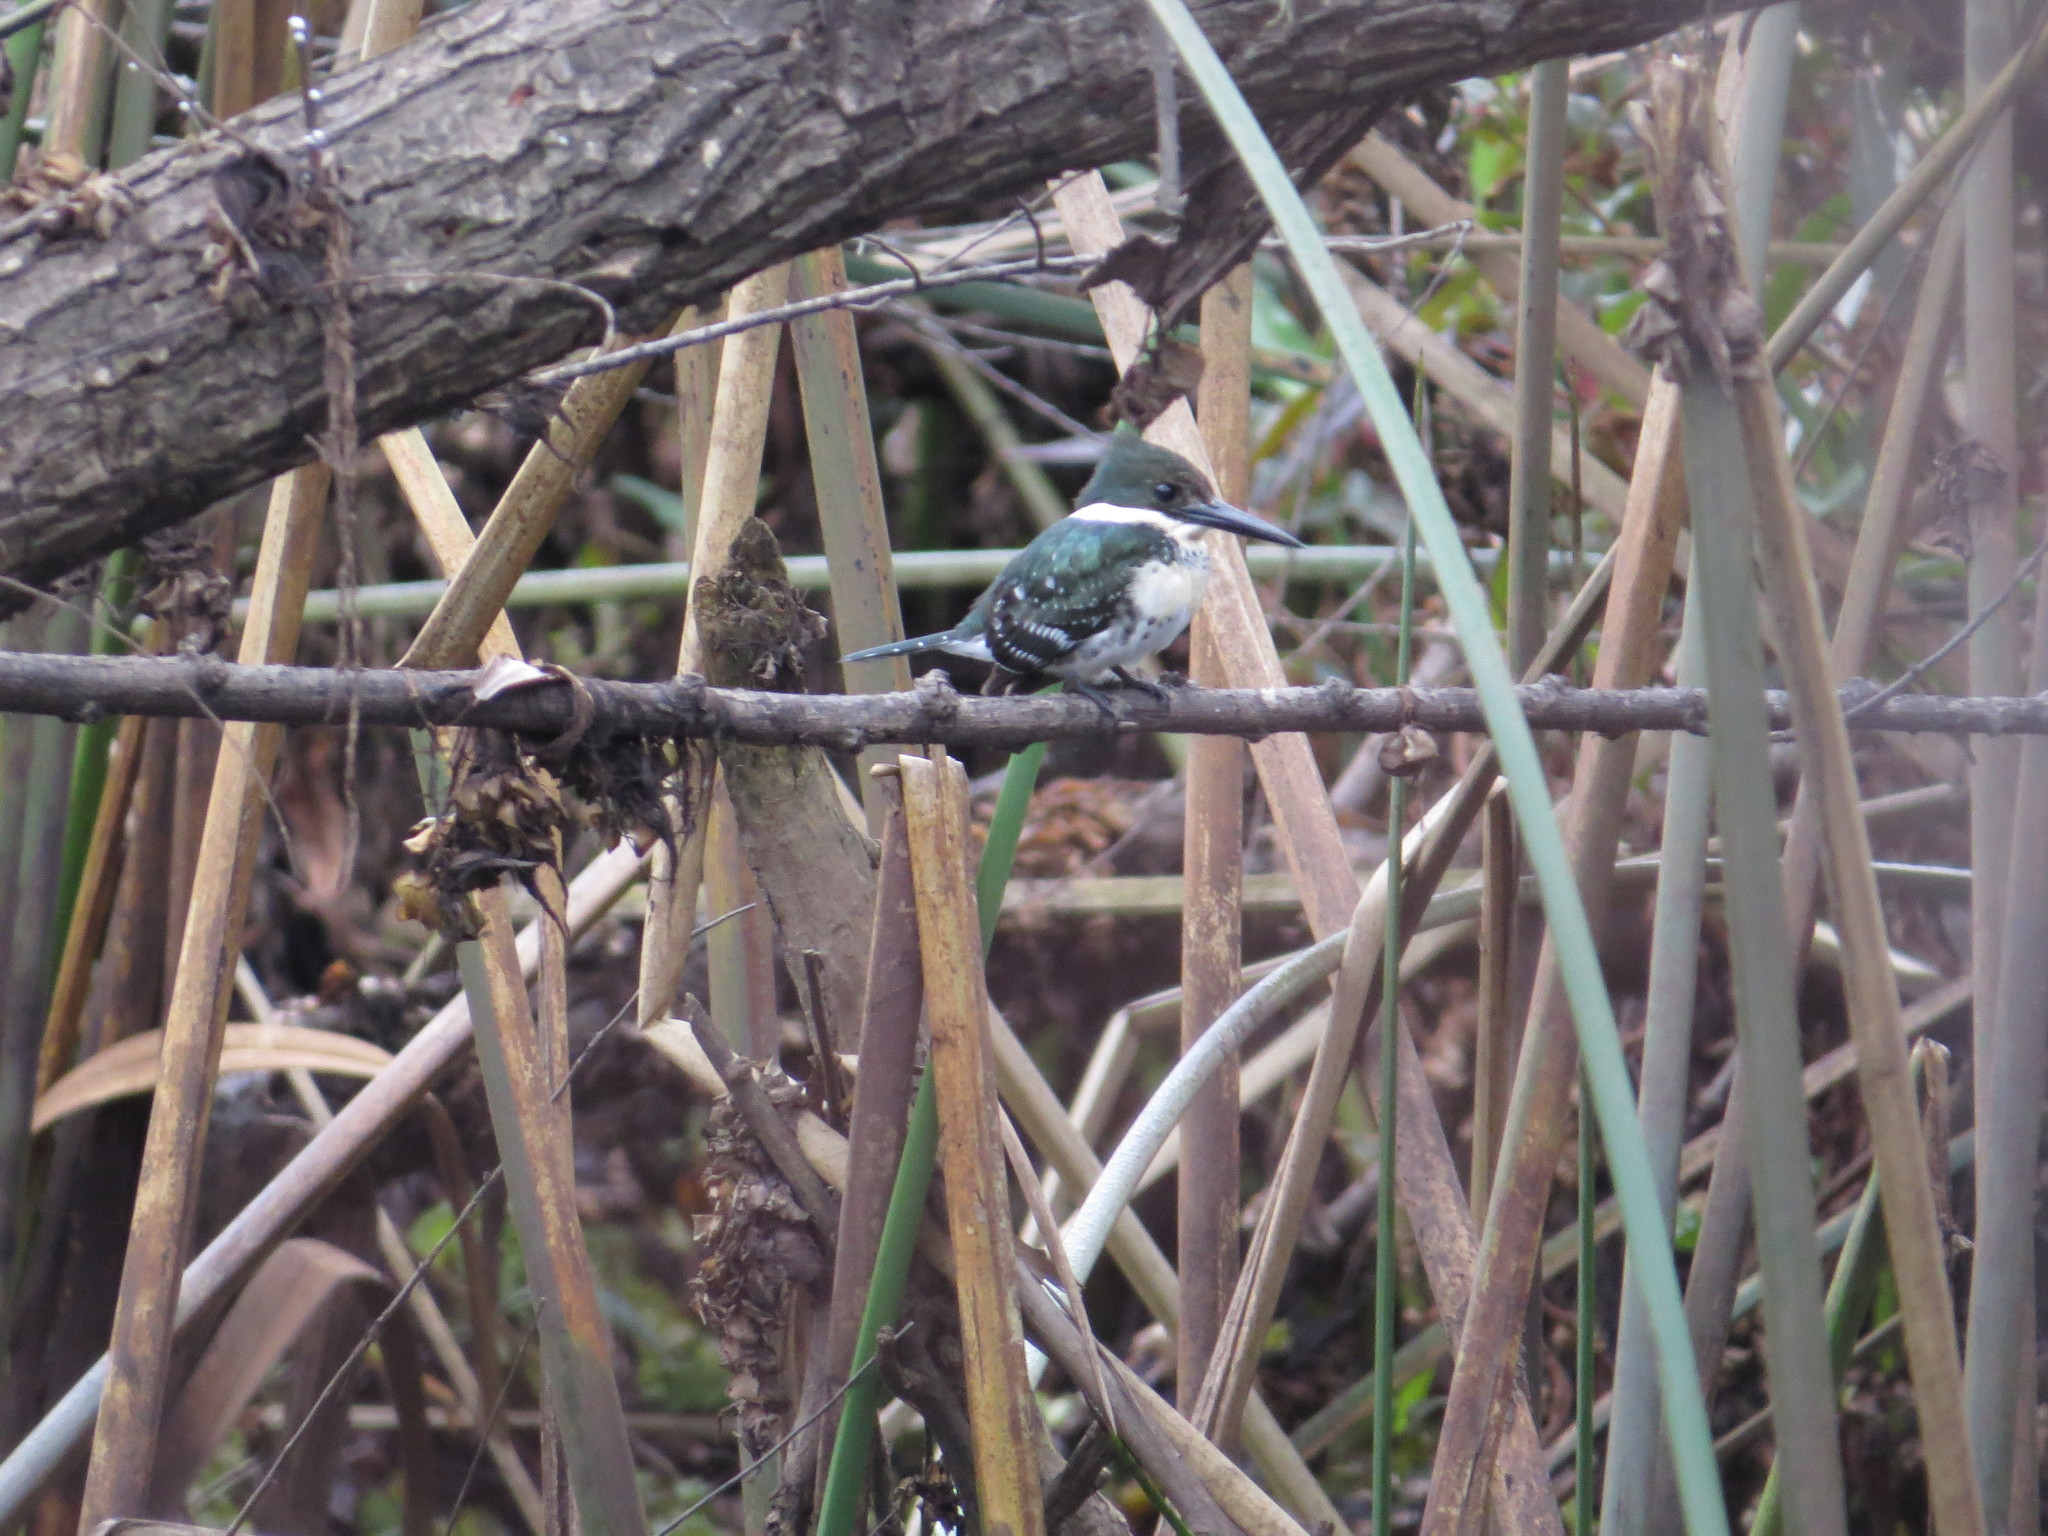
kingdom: Animalia
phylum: Chordata
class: Aves
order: Coraciiformes
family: Alcedinidae
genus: Chloroceryle
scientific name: Chloroceryle americana
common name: Green kingfisher
